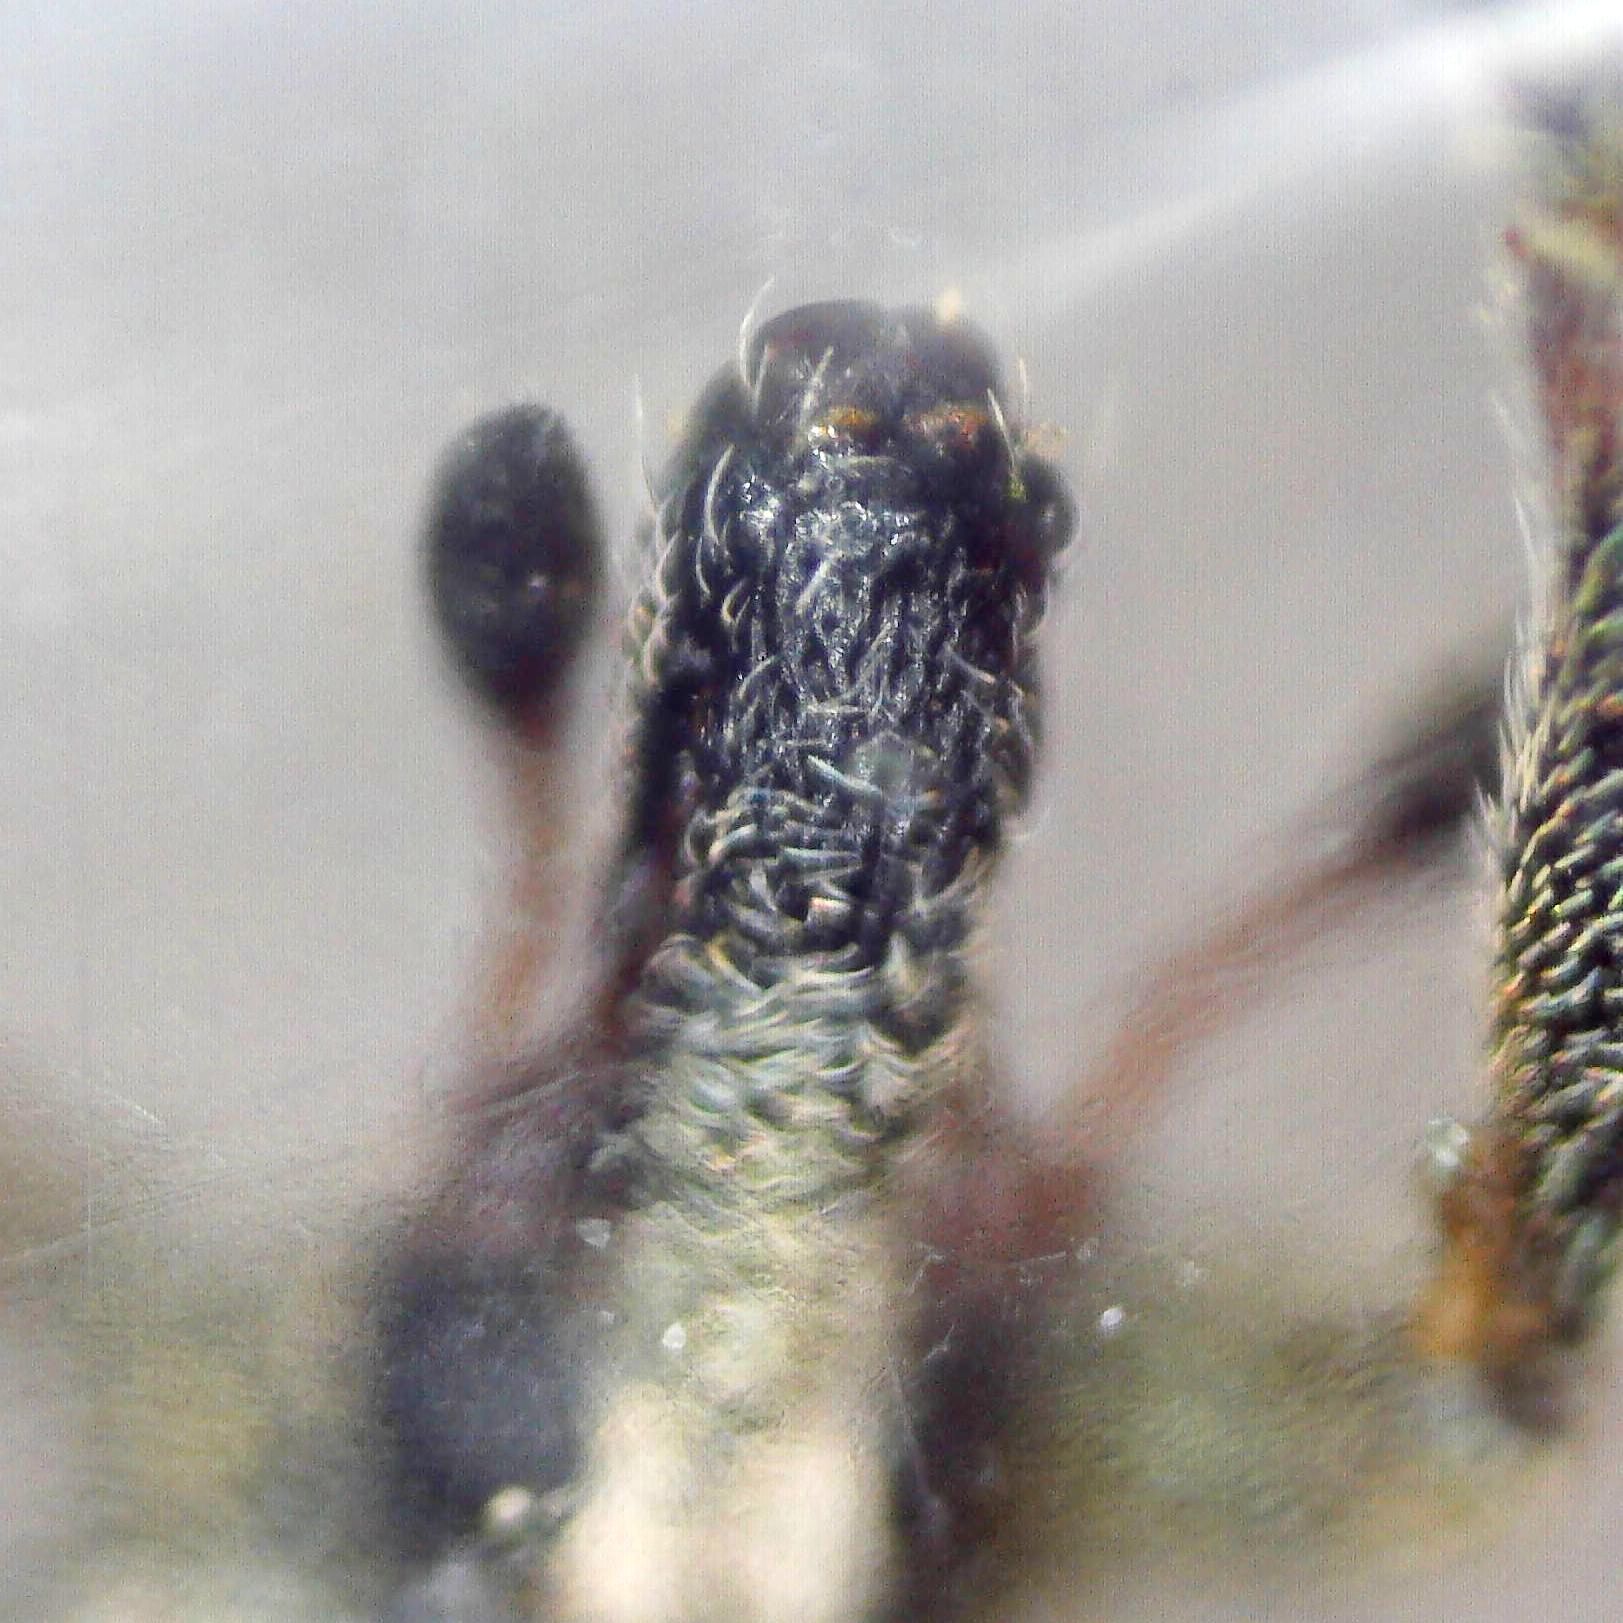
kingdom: Animalia
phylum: Arthropoda
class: Insecta
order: Coleoptera
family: Curculionidae
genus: Hypera
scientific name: Hypera rumicis
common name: Weevil
